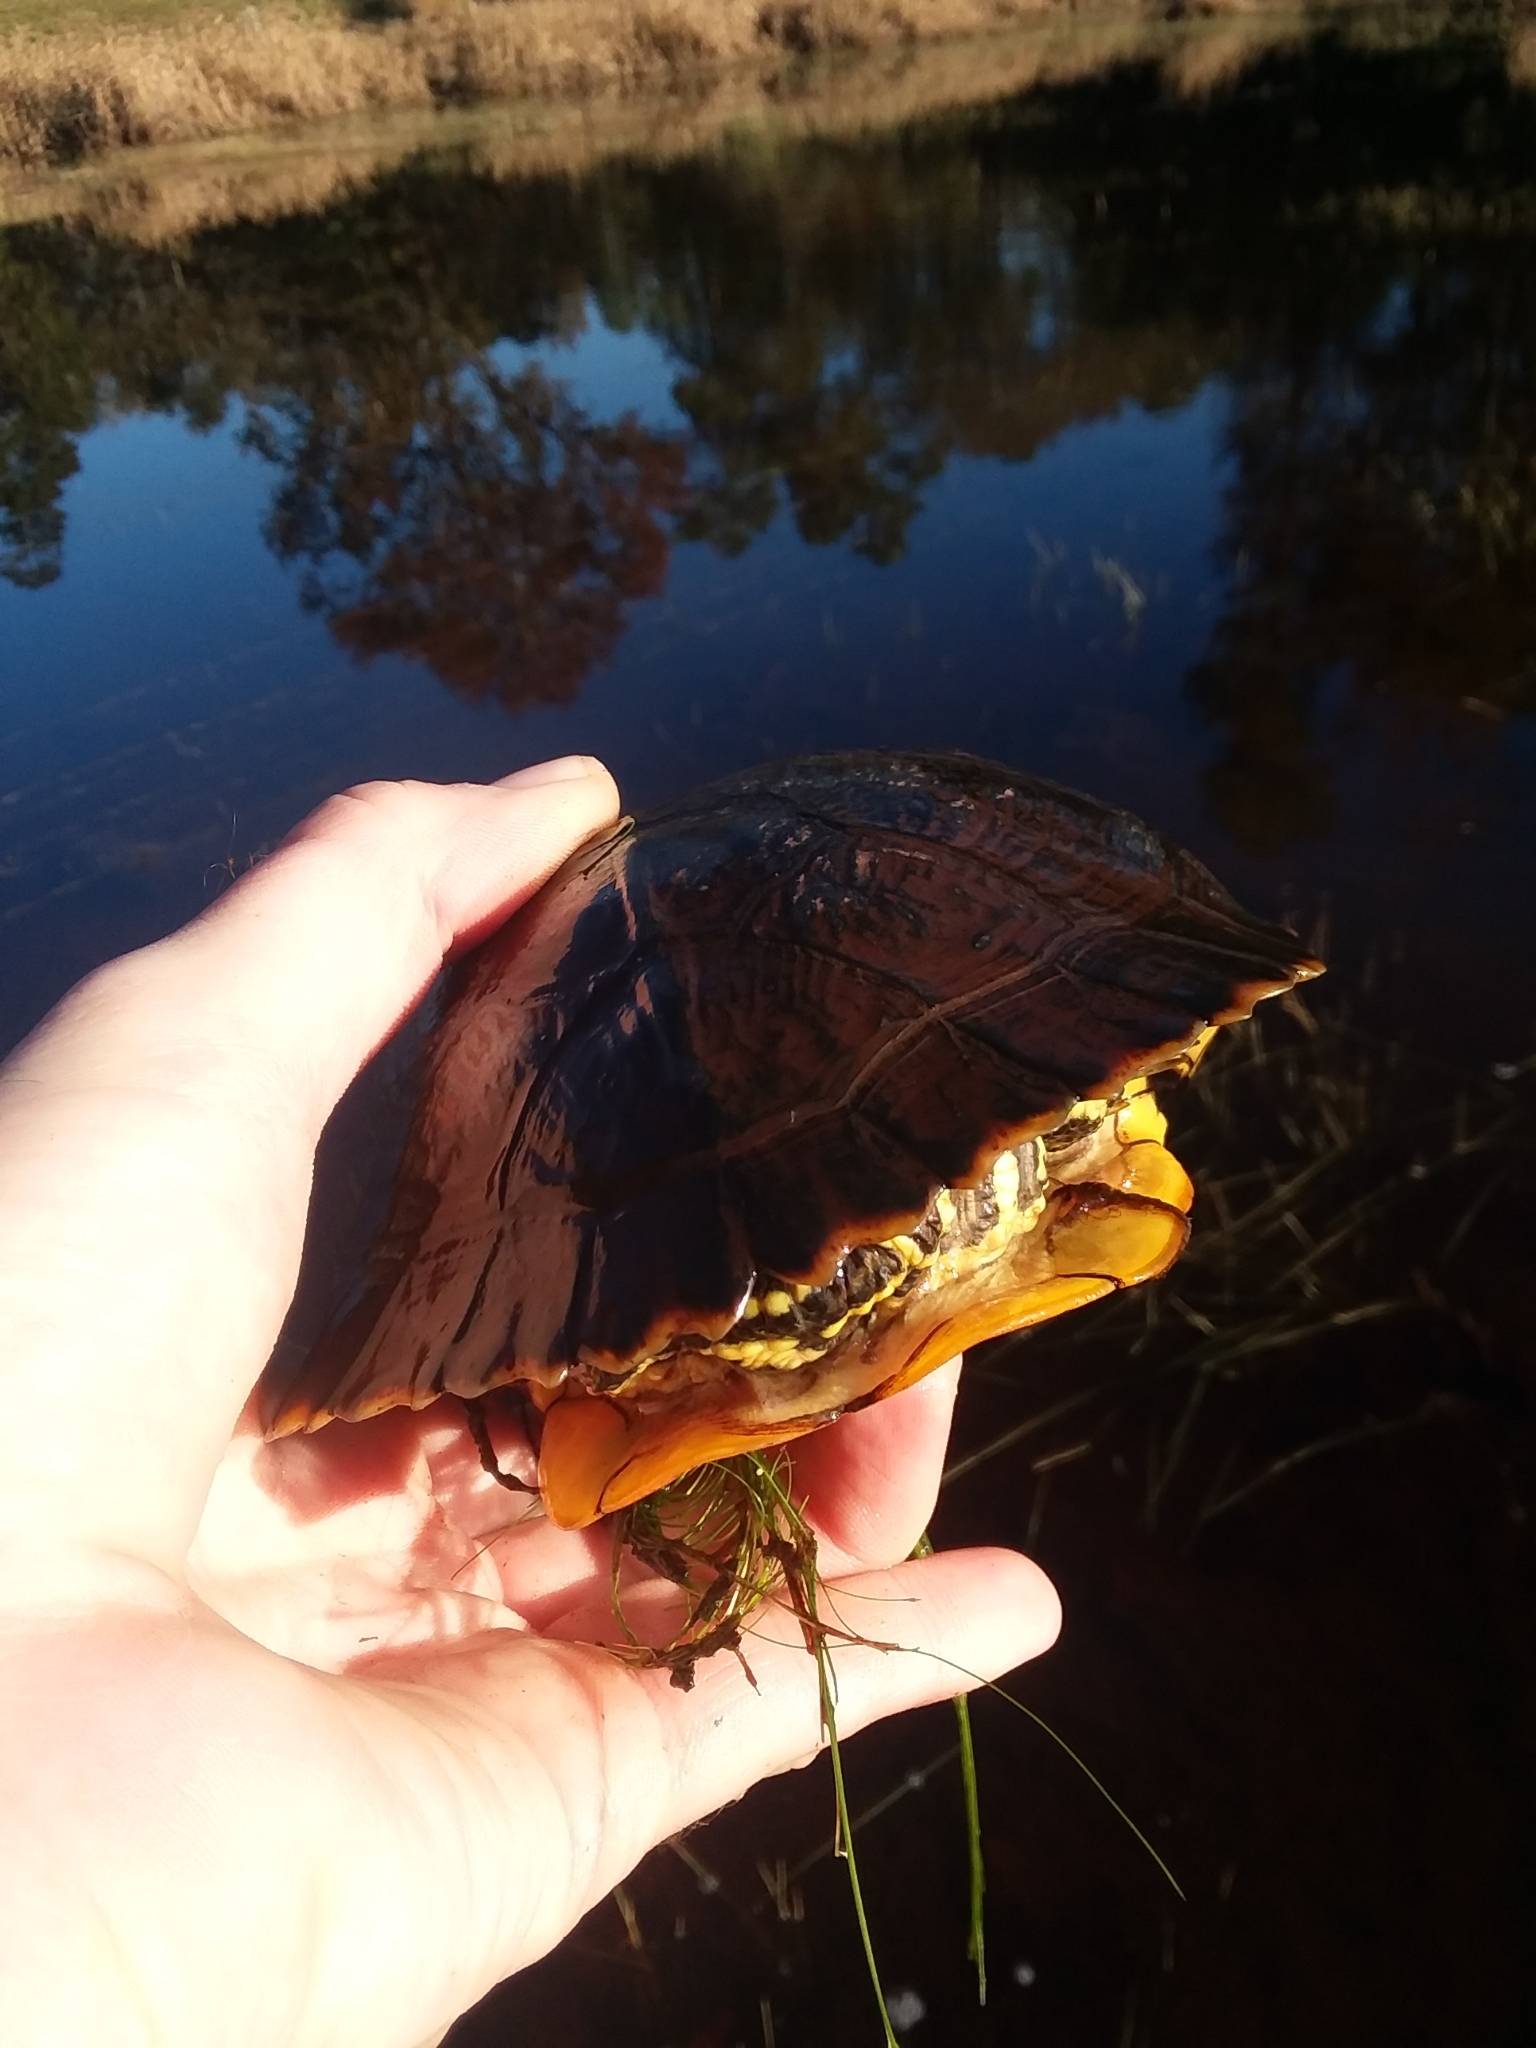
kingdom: Animalia
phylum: Chordata
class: Testudines
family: Emydidae
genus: Trachemys
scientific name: Trachemys scripta
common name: Slider
